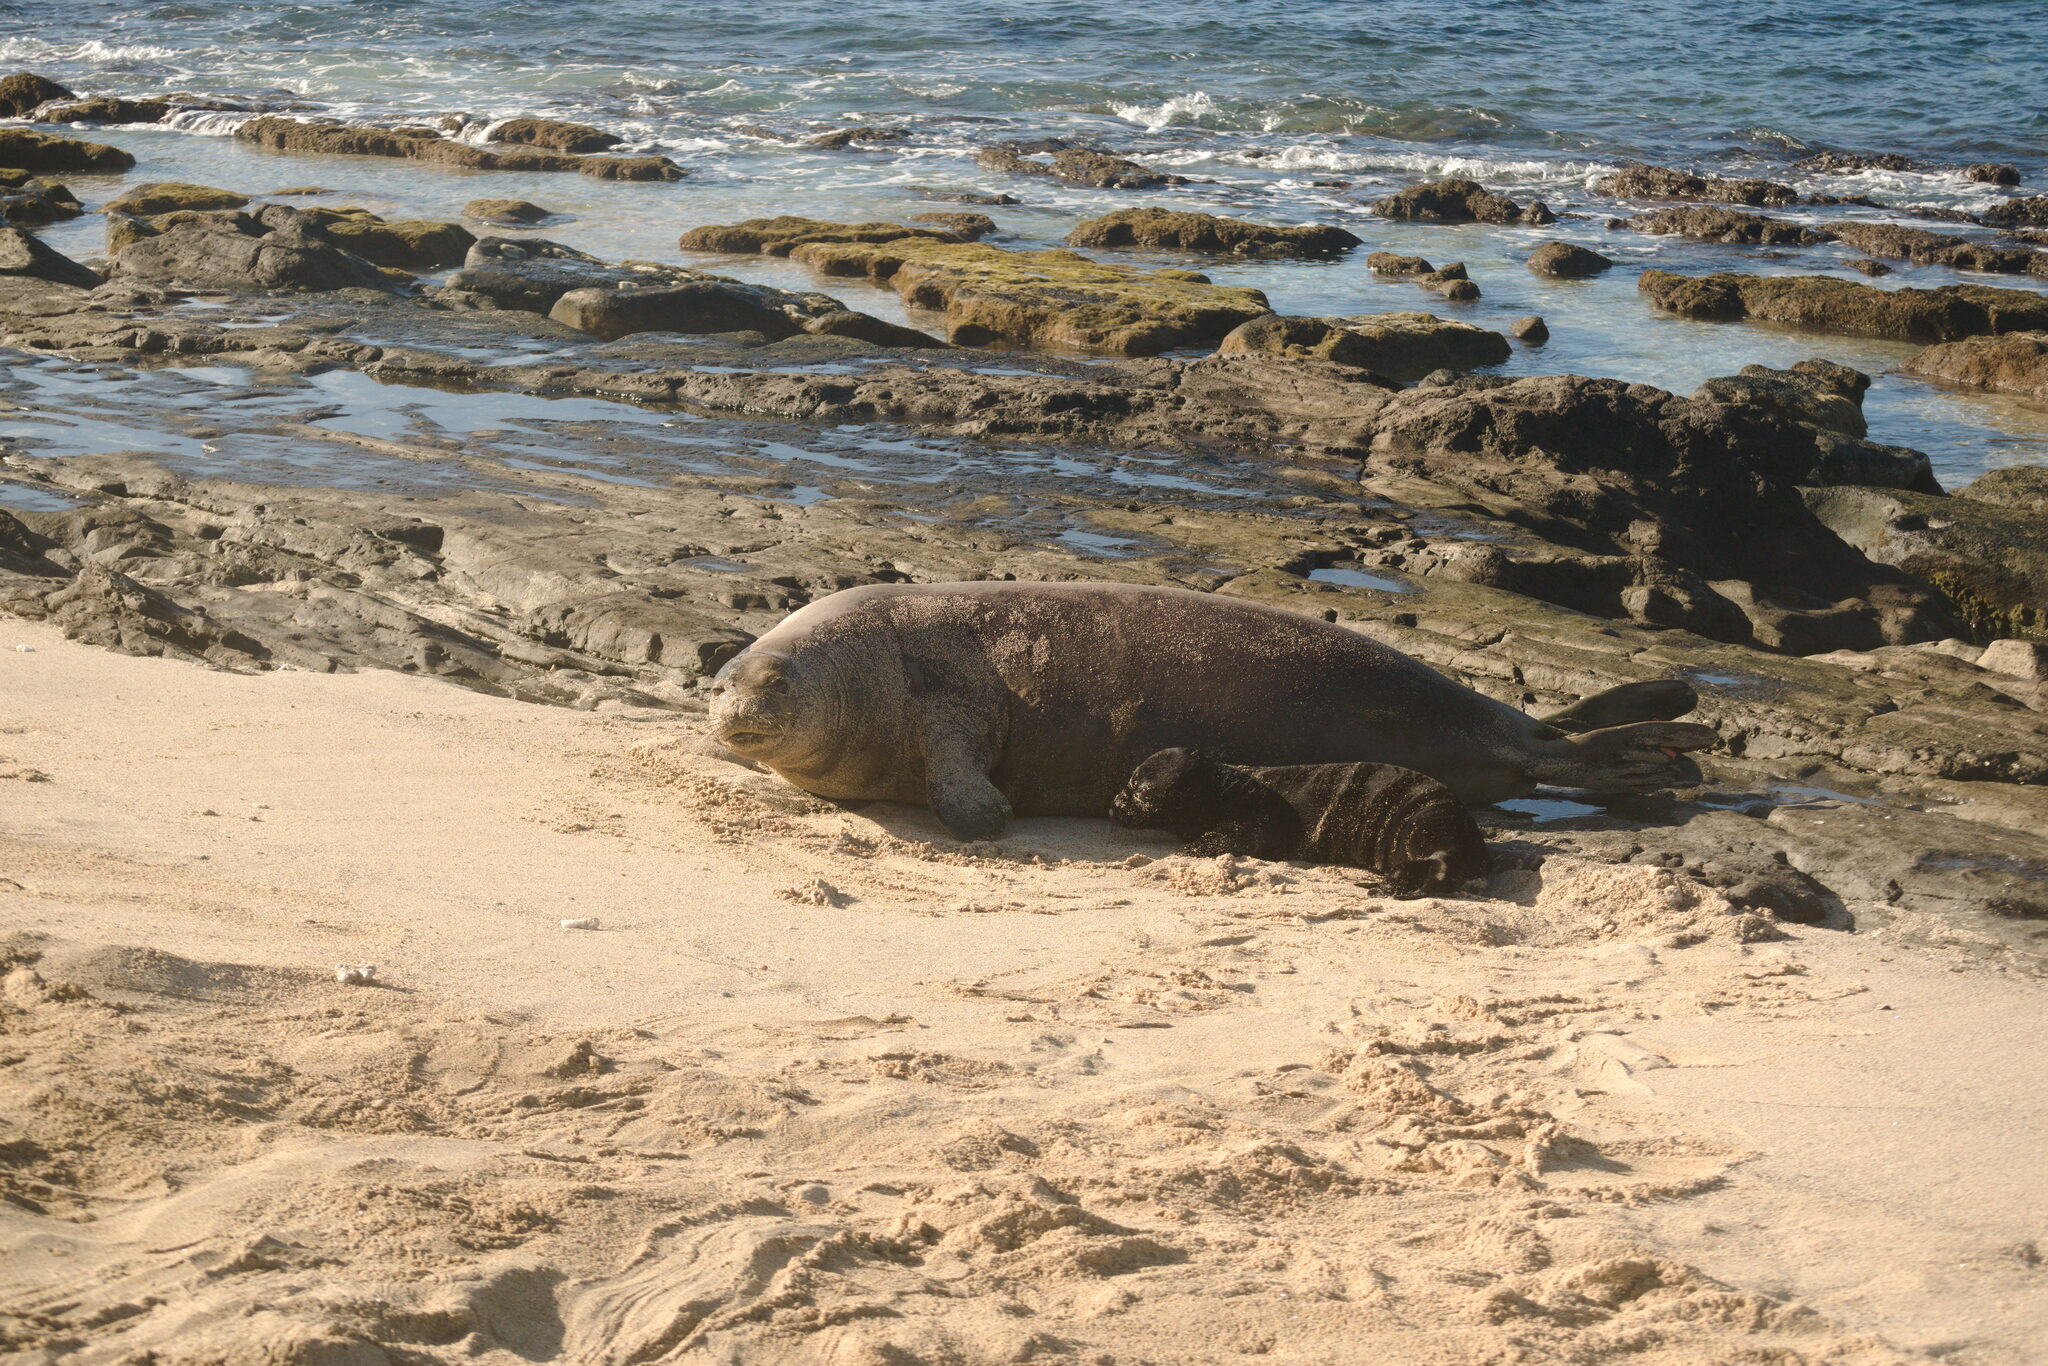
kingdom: Animalia
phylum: Chordata
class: Mammalia
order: Carnivora
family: Phocidae
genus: Neomonachus
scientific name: Neomonachus schauinslandi
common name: Hawaiian monk seal
